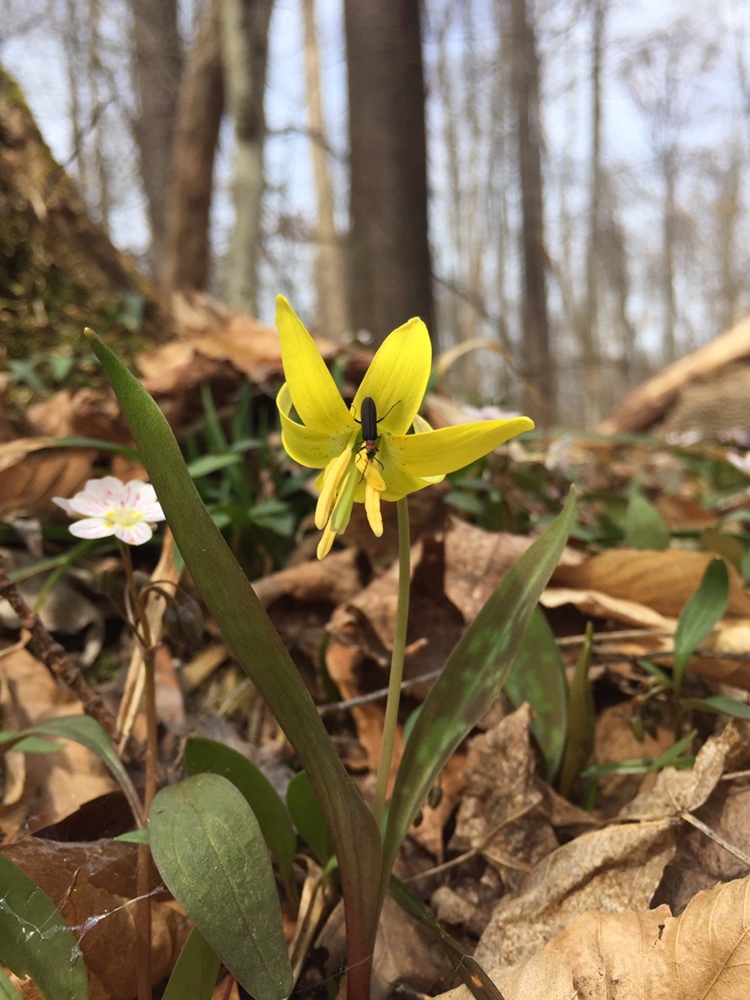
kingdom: Plantae
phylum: Tracheophyta
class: Liliopsida
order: Liliales
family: Liliaceae
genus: Erythronium
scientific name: Erythronium americanum
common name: Yellow adder's-tongue
